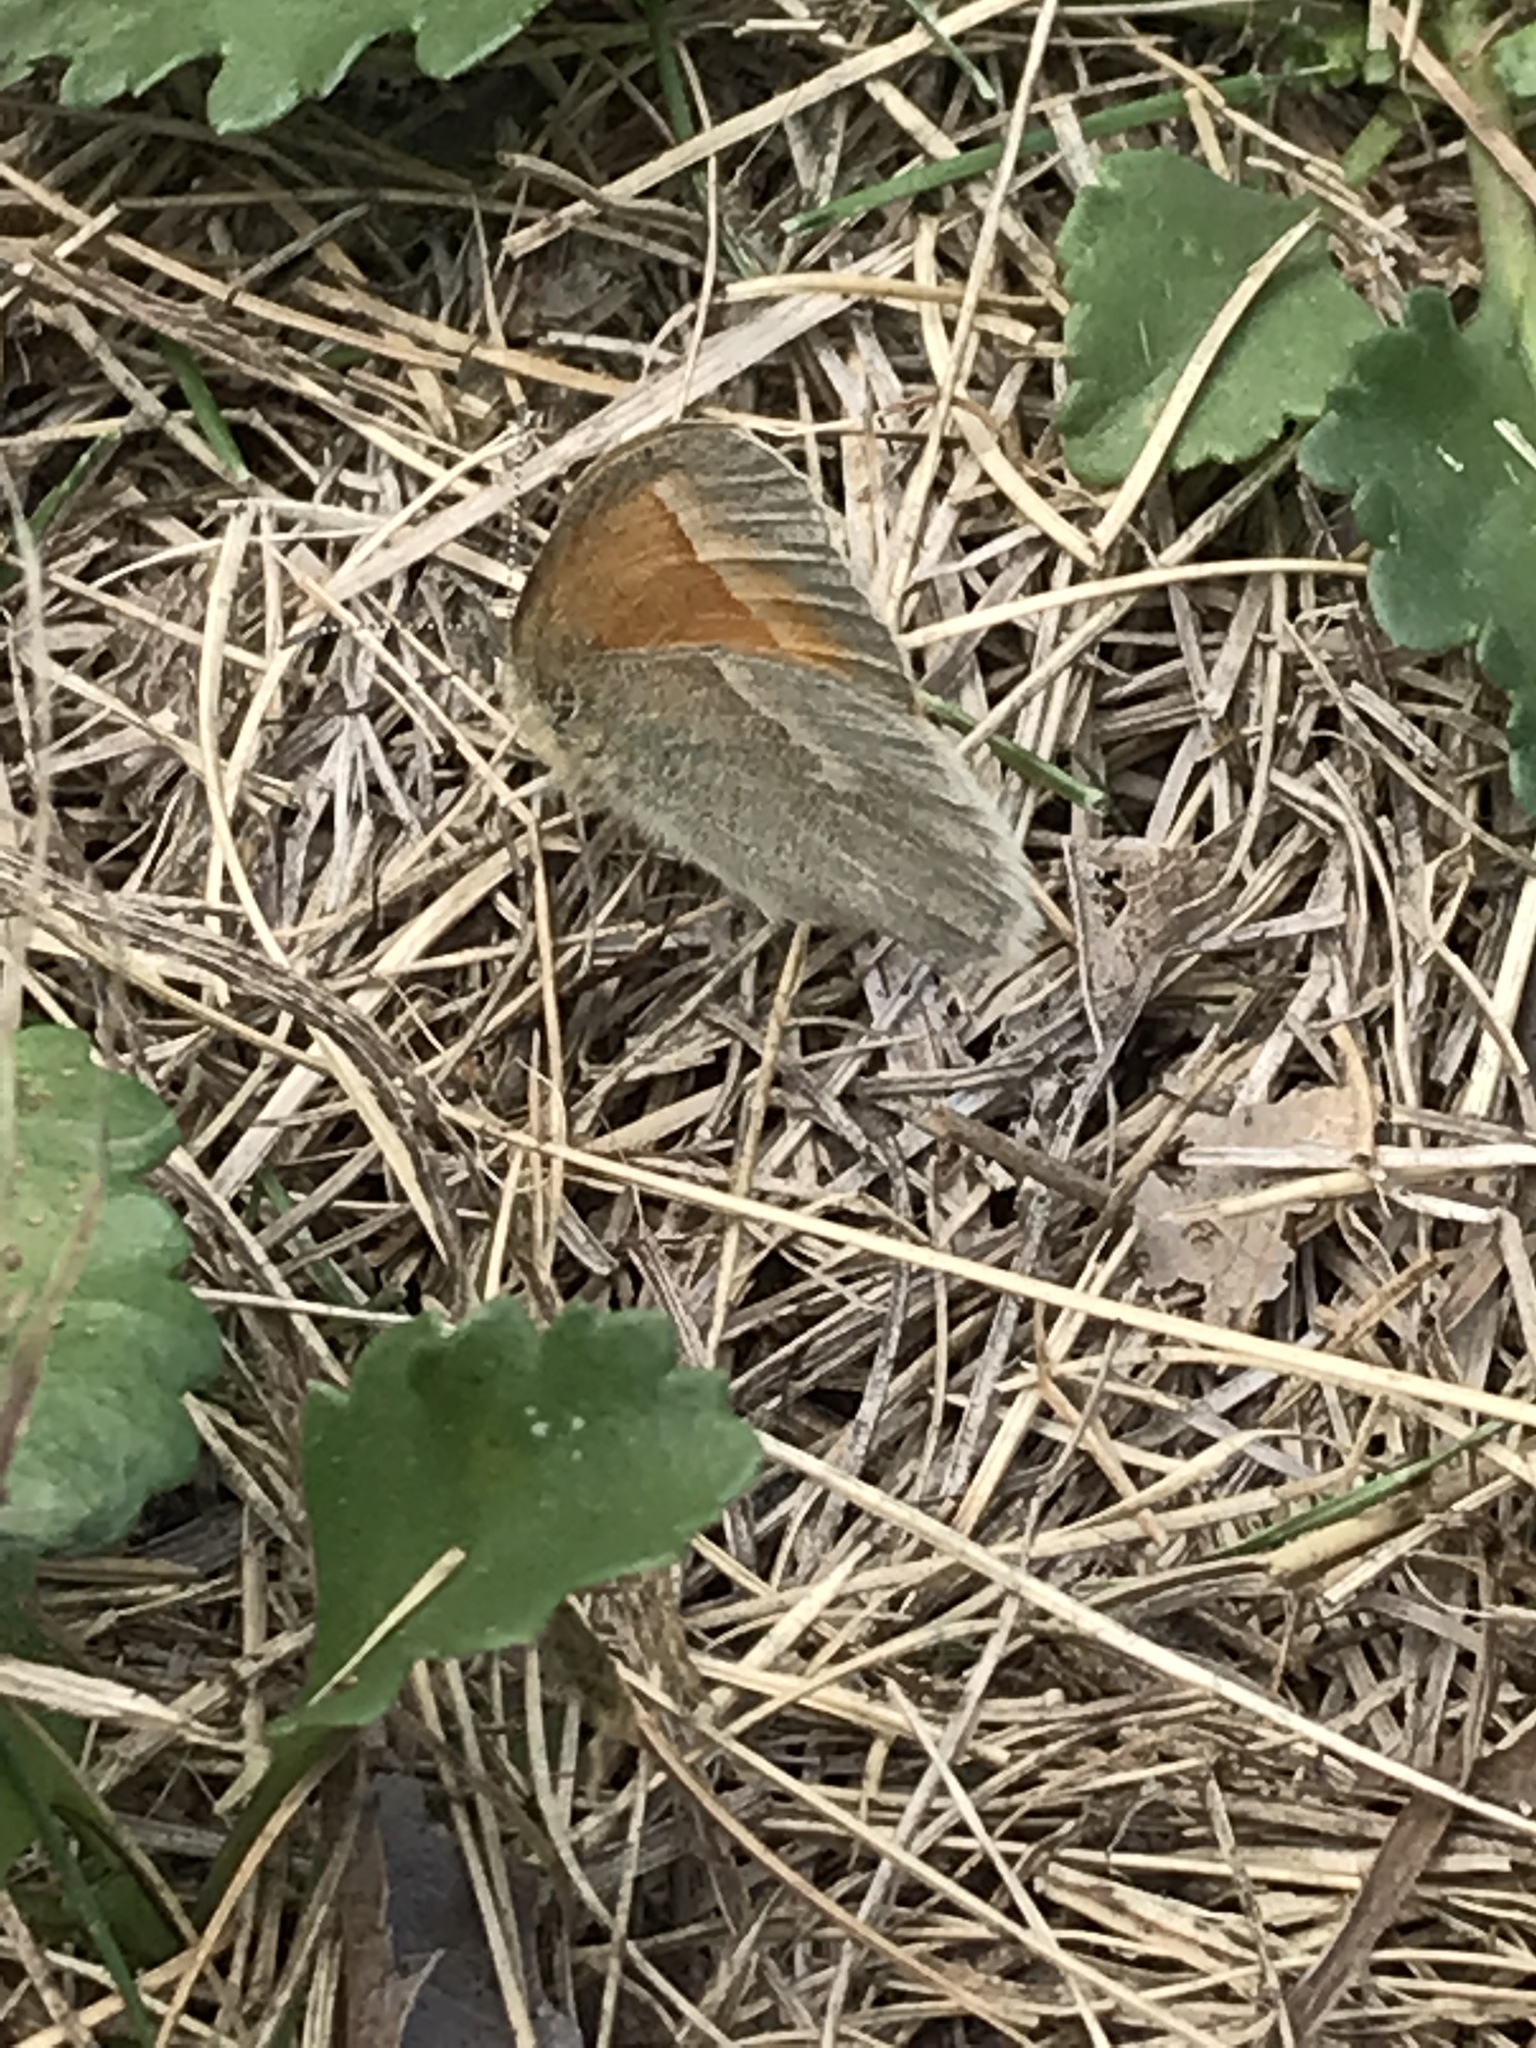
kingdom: Animalia
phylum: Arthropoda
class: Insecta
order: Lepidoptera
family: Nymphalidae
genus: Coenonympha
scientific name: Coenonympha california
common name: Common ringlet
